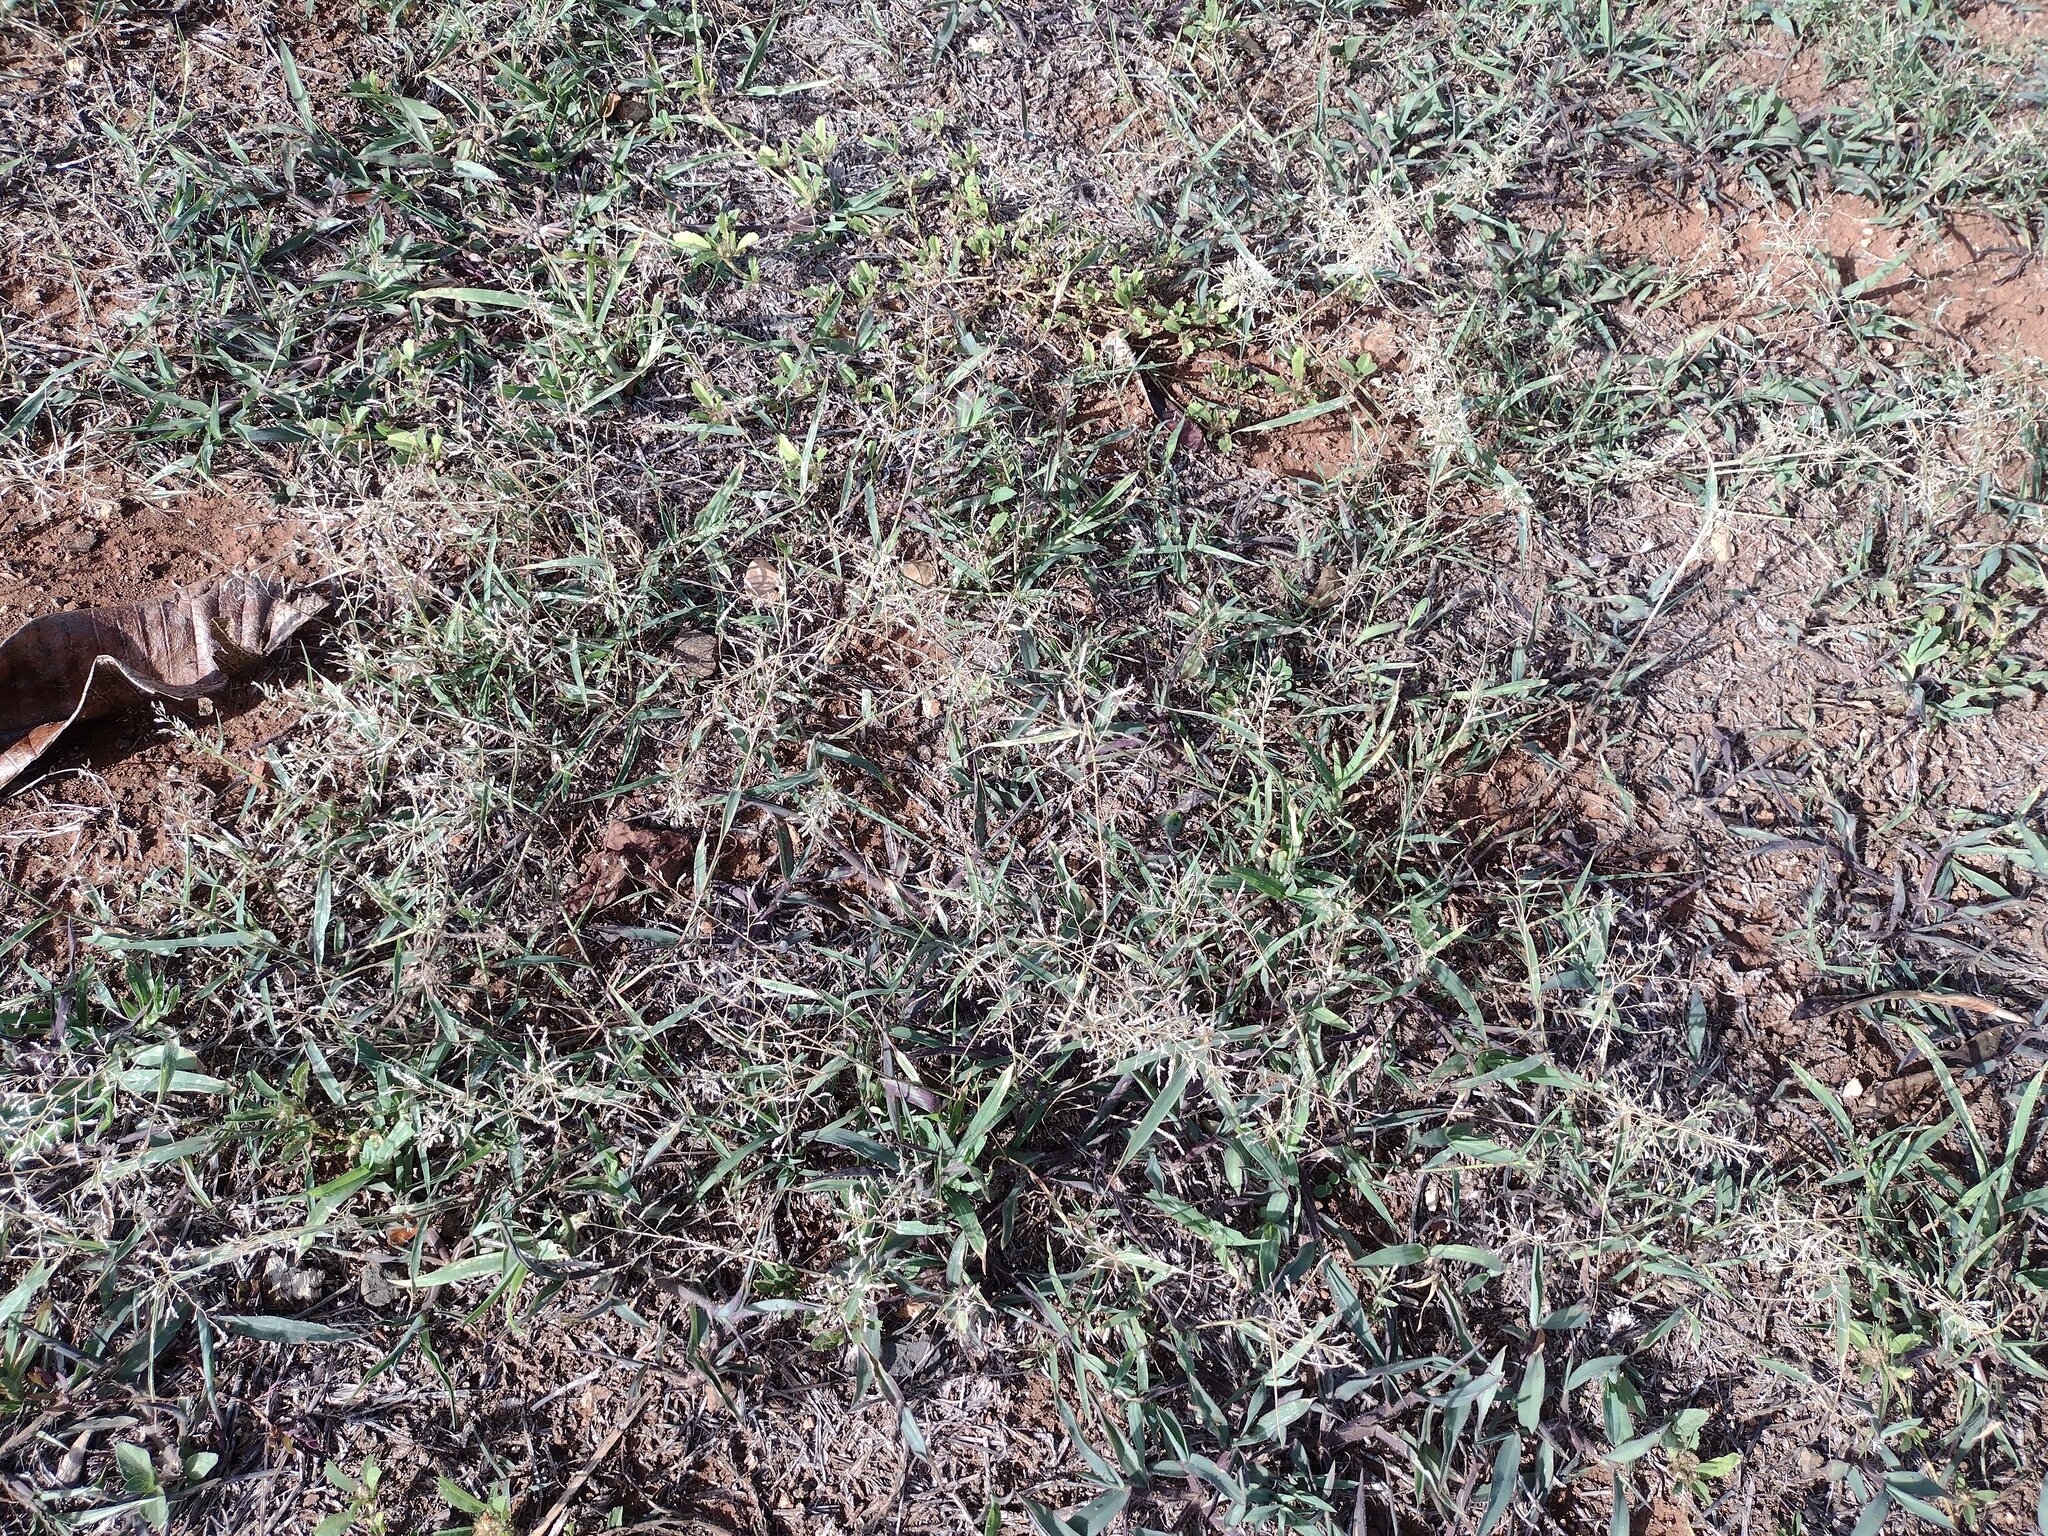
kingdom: Plantae
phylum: Tracheophyta
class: Liliopsida
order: Poales
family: Poaceae
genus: Eragrostis
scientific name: Eragrostis barrelieri
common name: Mediterranean lovegrass
